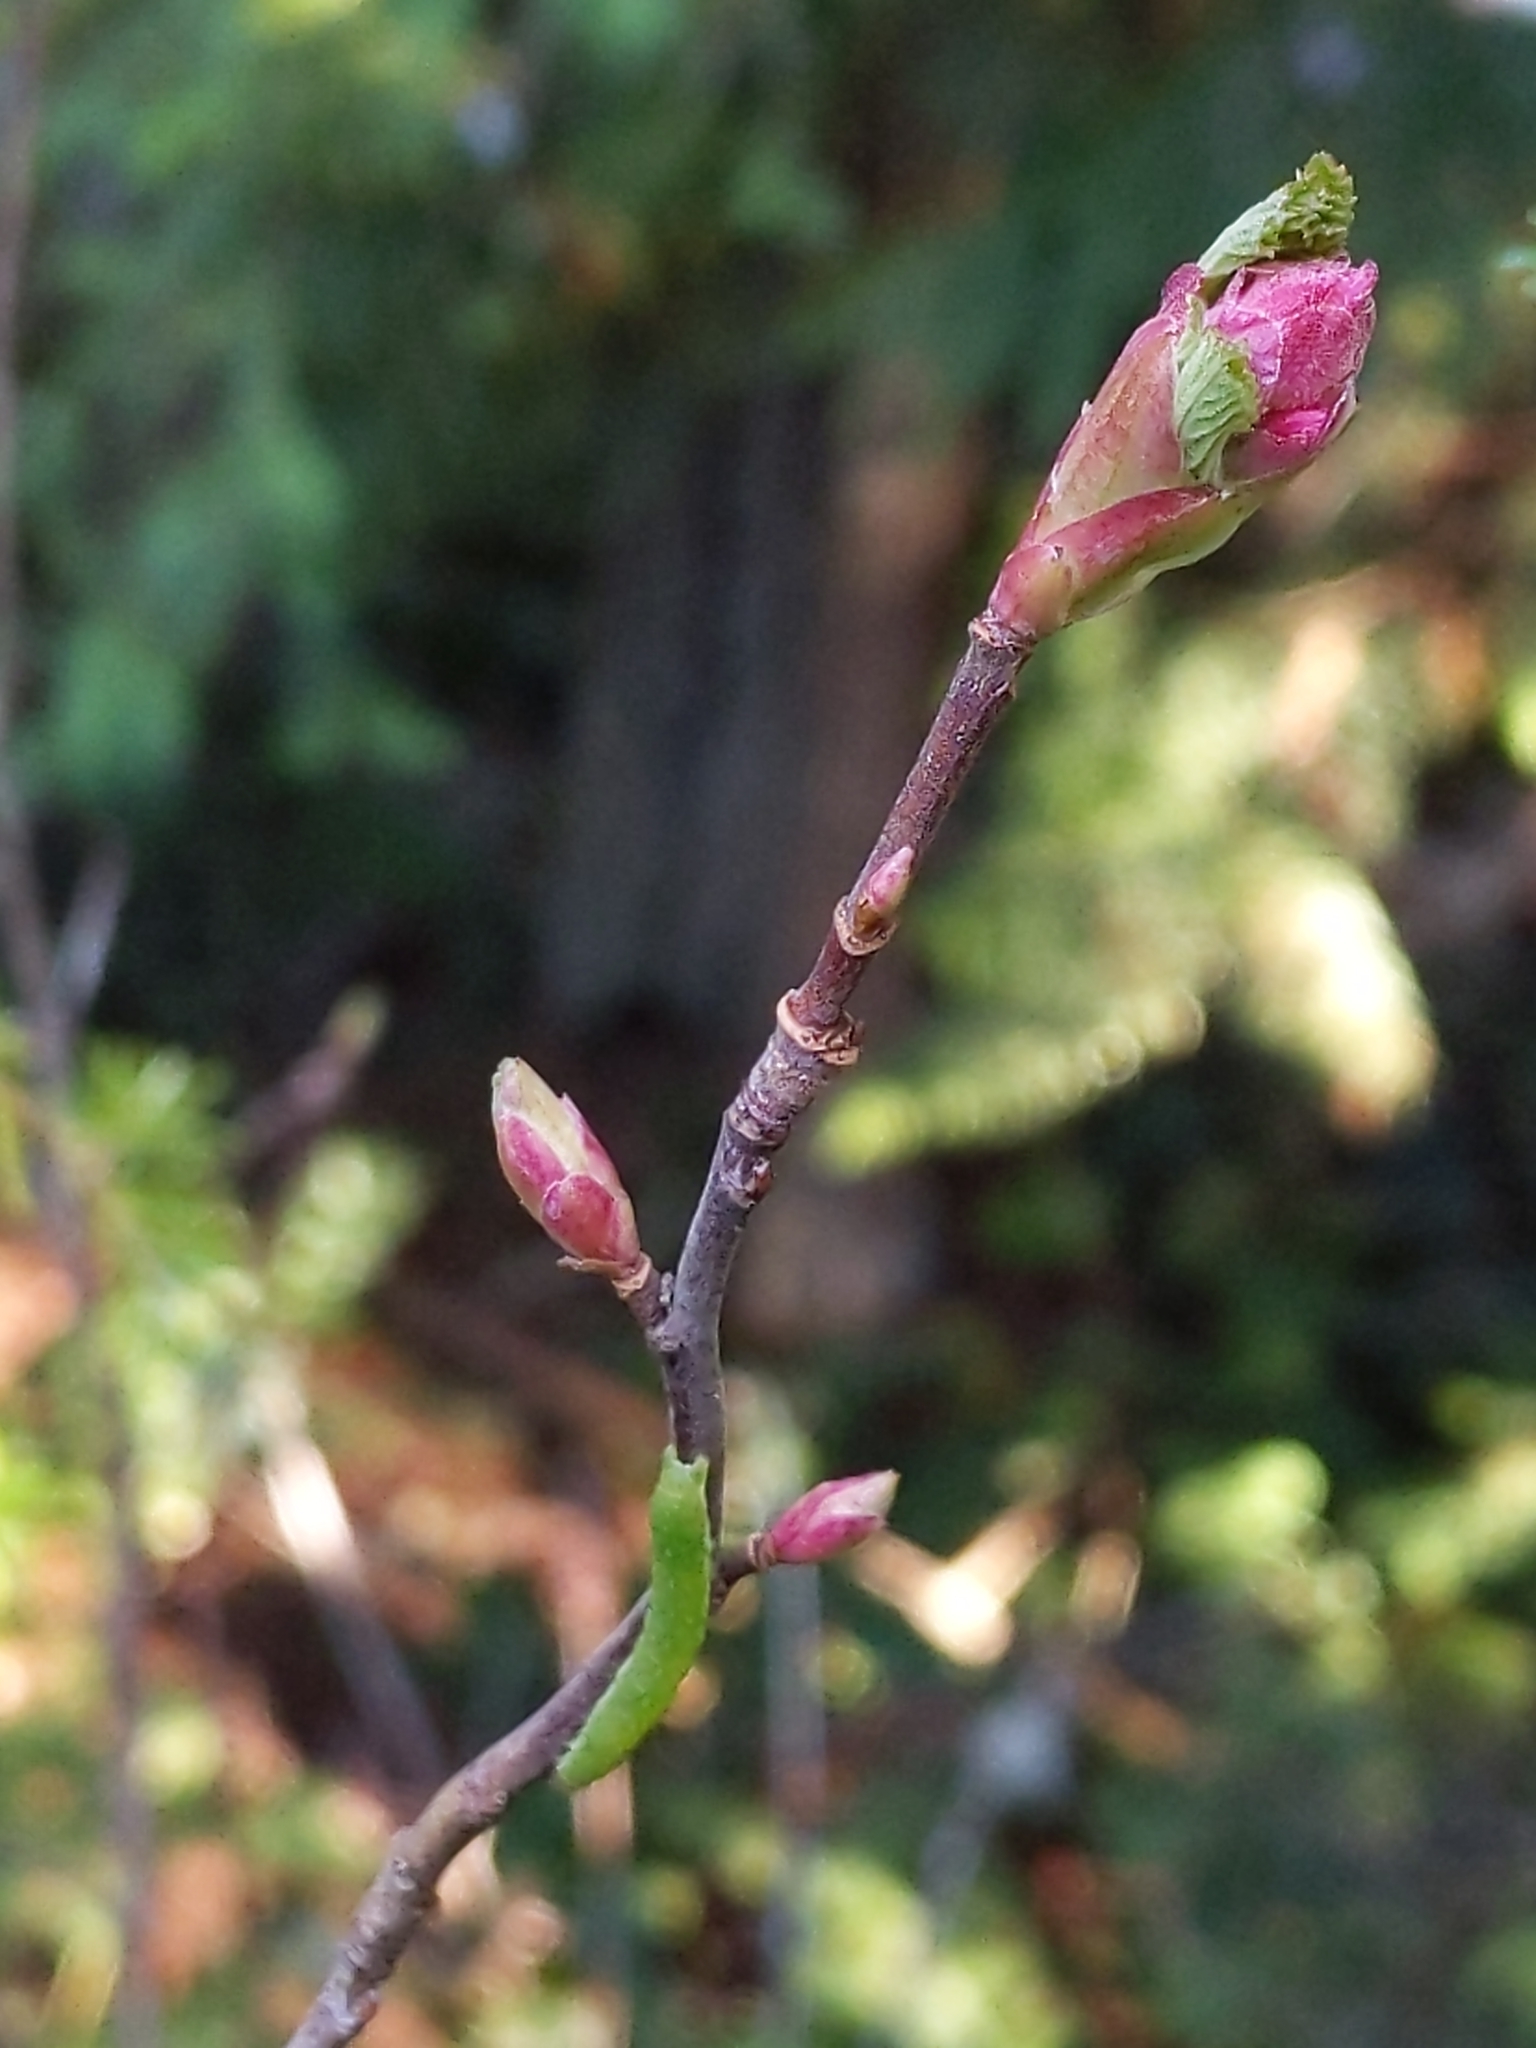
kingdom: Plantae
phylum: Tracheophyta
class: Magnoliopsida
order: Saxifragales
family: Grossulariaceae
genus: Ribes
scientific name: Ribes sanguineum
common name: Flowering currant
